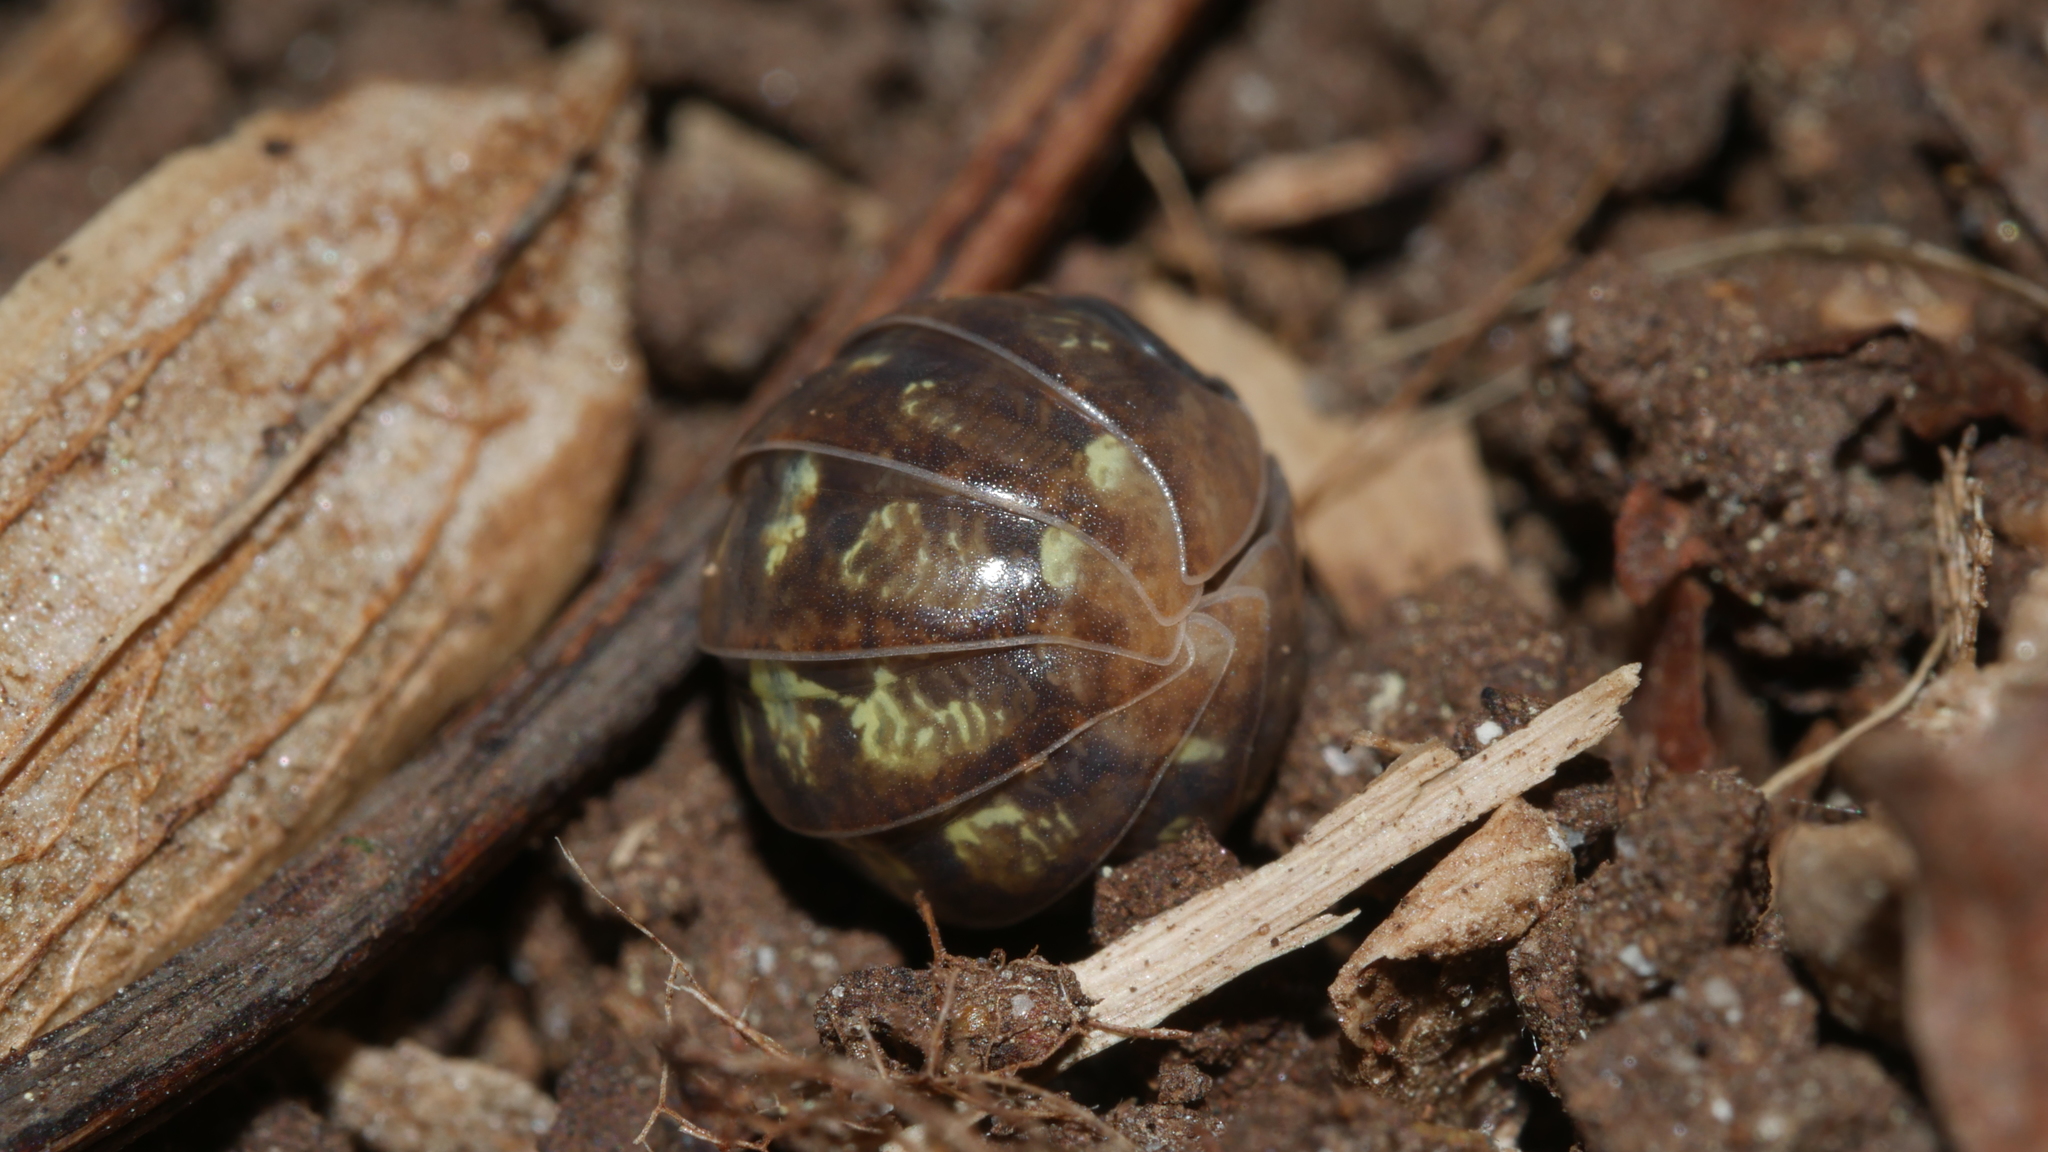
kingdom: Animalia
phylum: Arthropoda
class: Malacostraca
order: Isopoda
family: Armadillidiidae
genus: Armadillidium
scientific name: Armadillidium vulgare
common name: Common pill woodlouse
